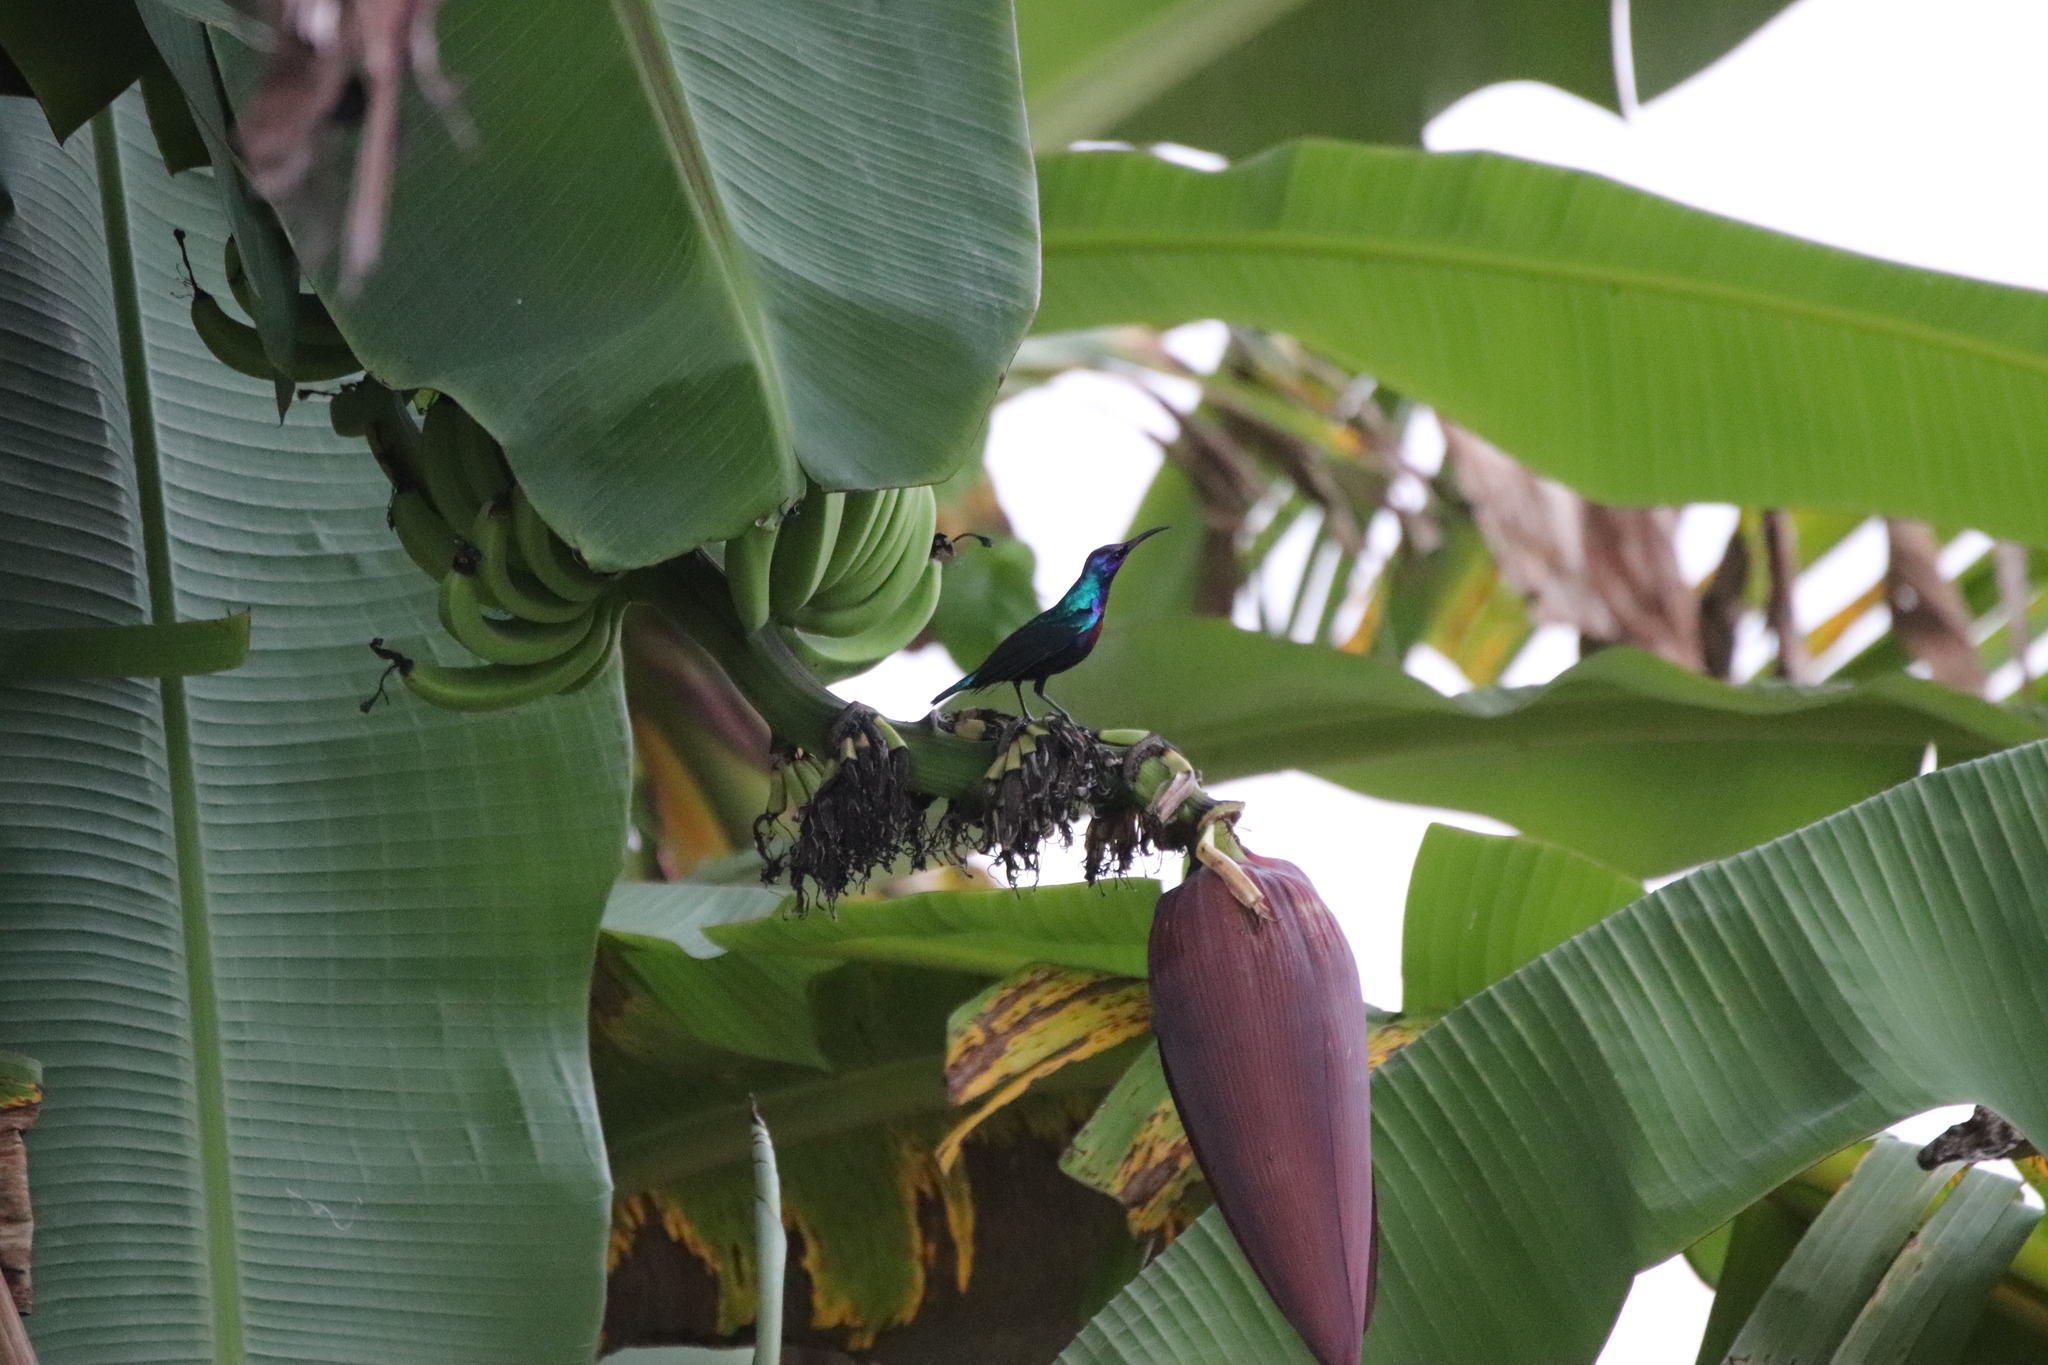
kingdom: Animalia
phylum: Chordata
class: Aves
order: Passeriformes
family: Nectariniidae
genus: Cinnyris
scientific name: Cinnyris coccinigastrus
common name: Splendid sunbird
